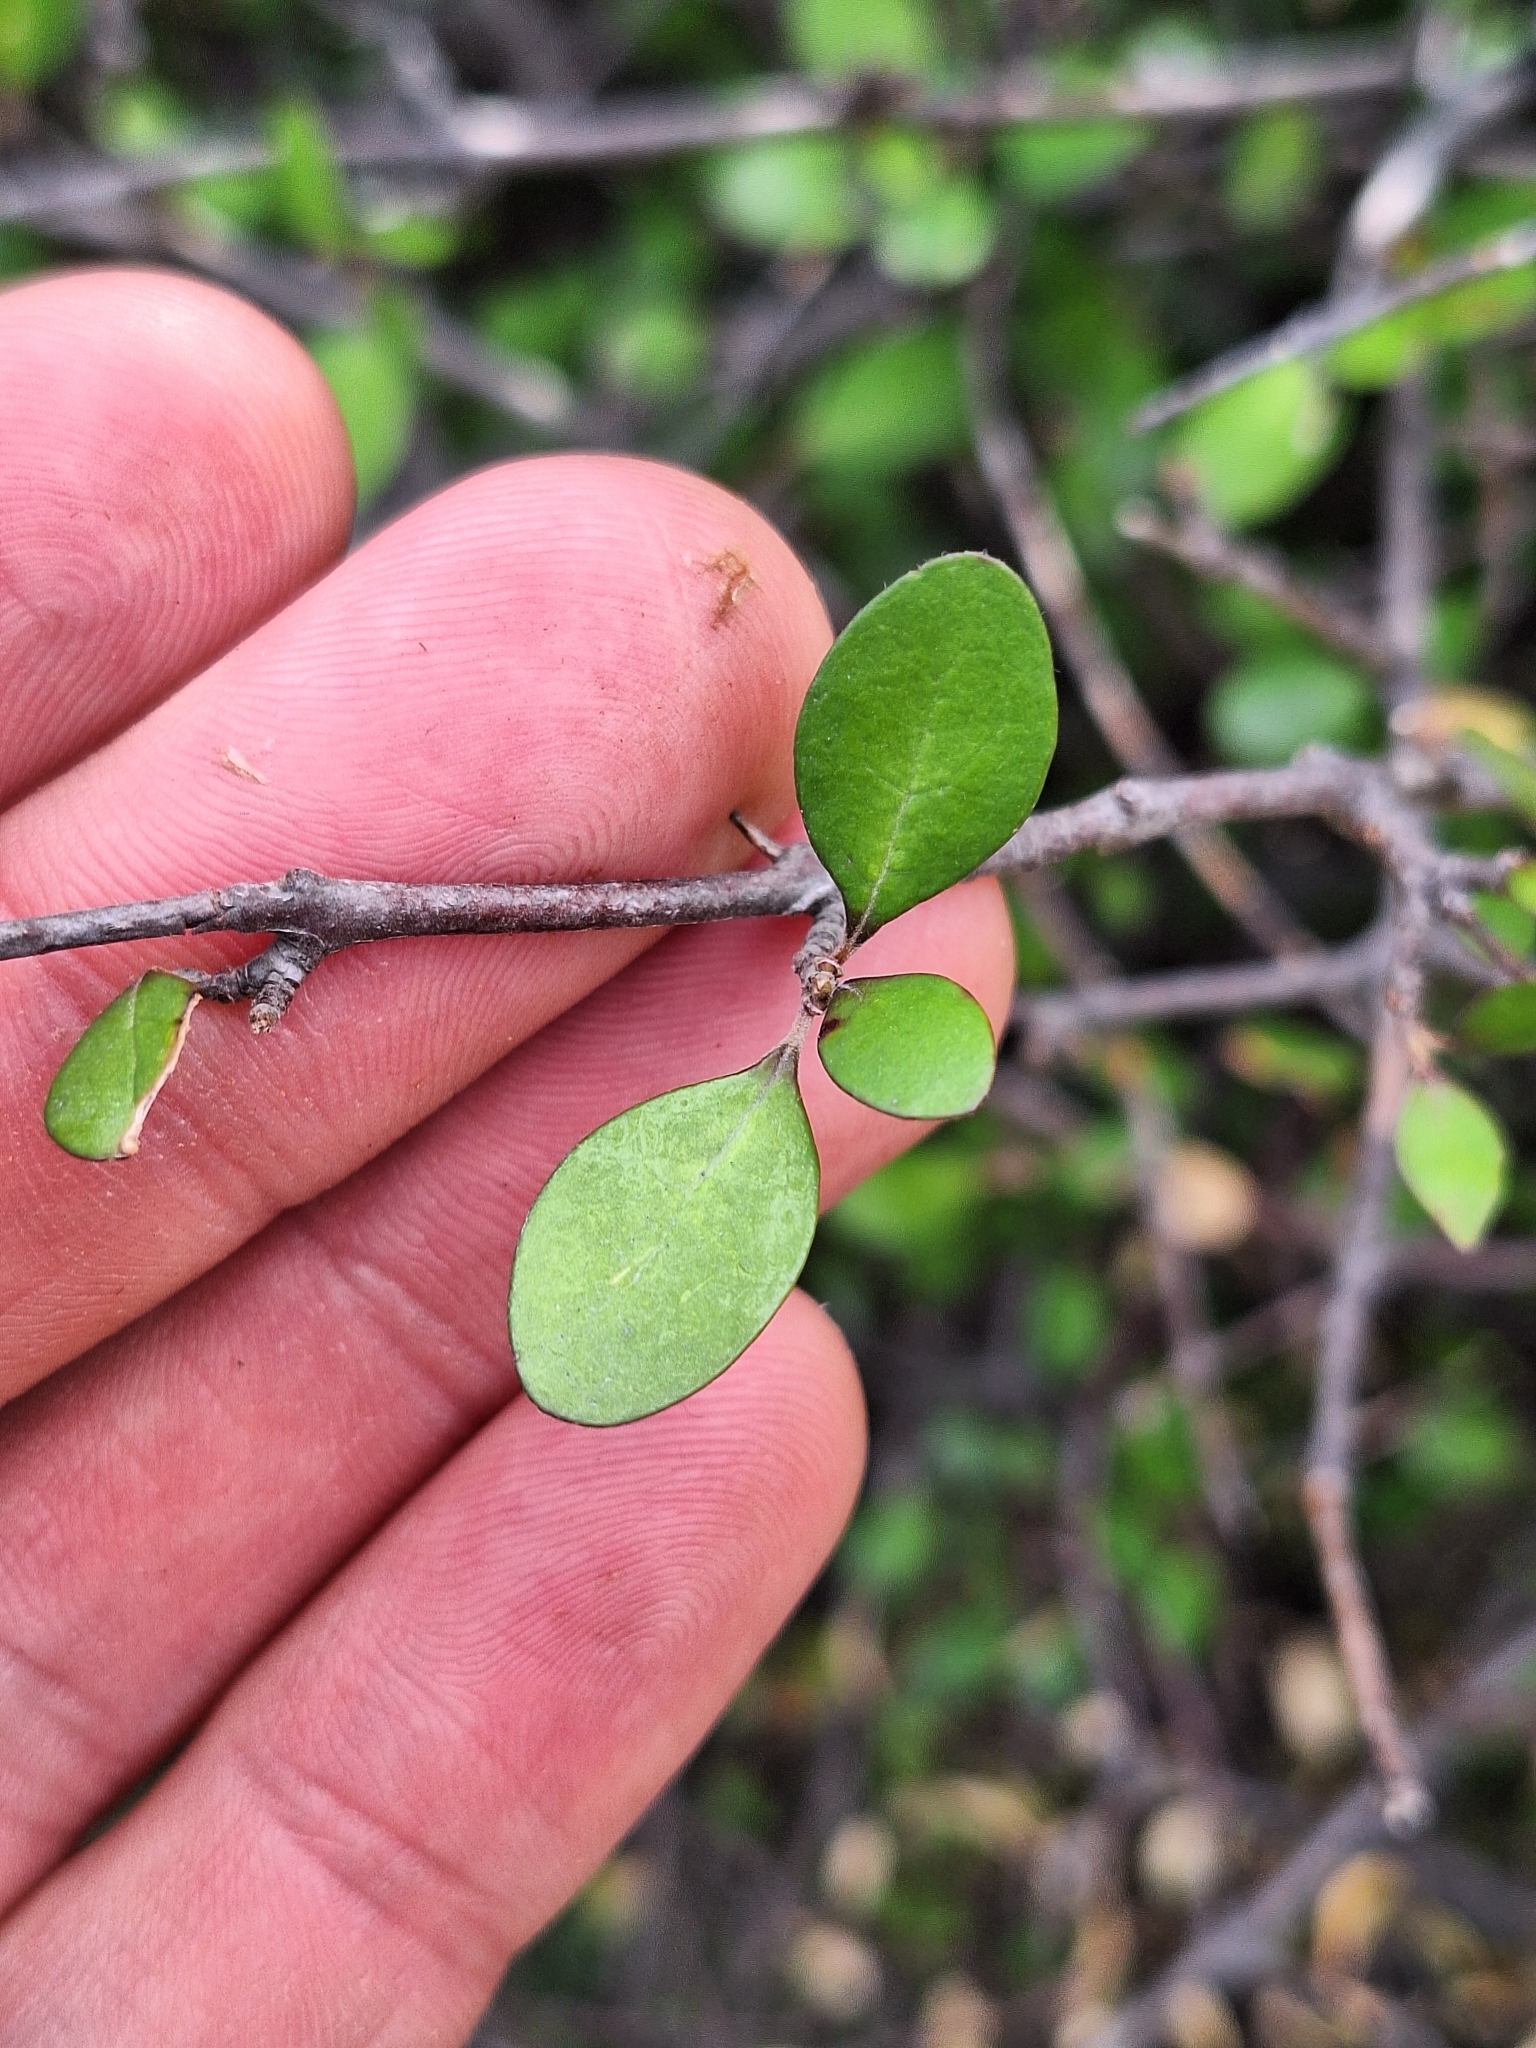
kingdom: Plantae
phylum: Tracheophyta
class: Magnoliopsida
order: Oxalidales
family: Elaeocarpaceae
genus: Aristotelia
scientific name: Aristotelia fruticosa
